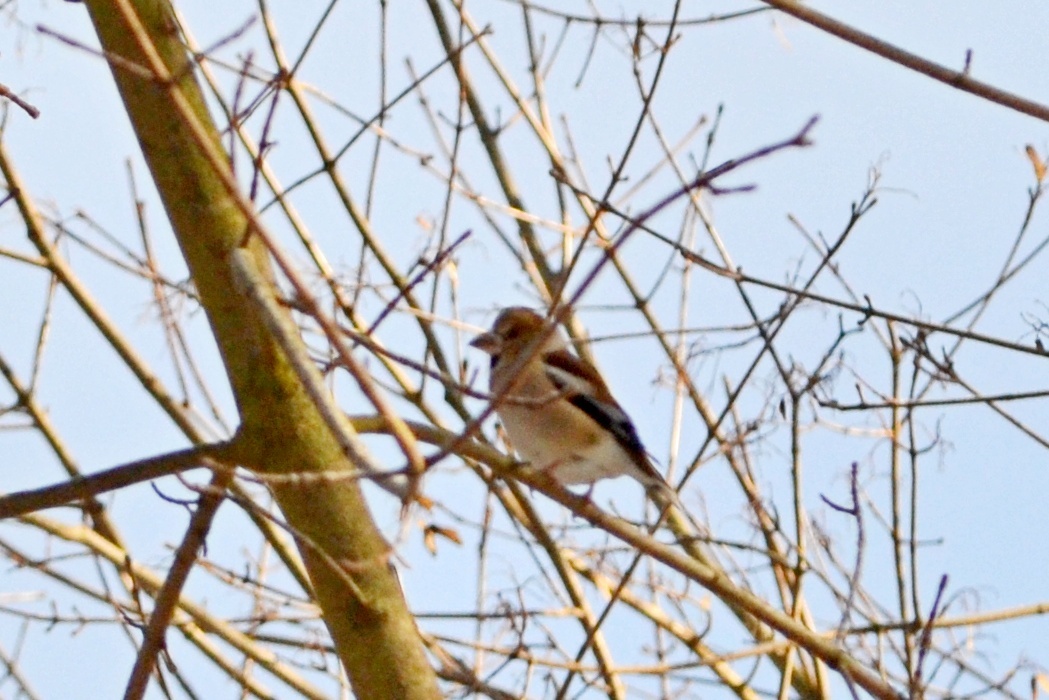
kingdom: Animalia
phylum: Chordata
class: Aves
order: Passeriformes
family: Fringillidae
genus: Coccothraustes
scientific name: Coccothraustes coccothraustes
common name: Hawfinch
